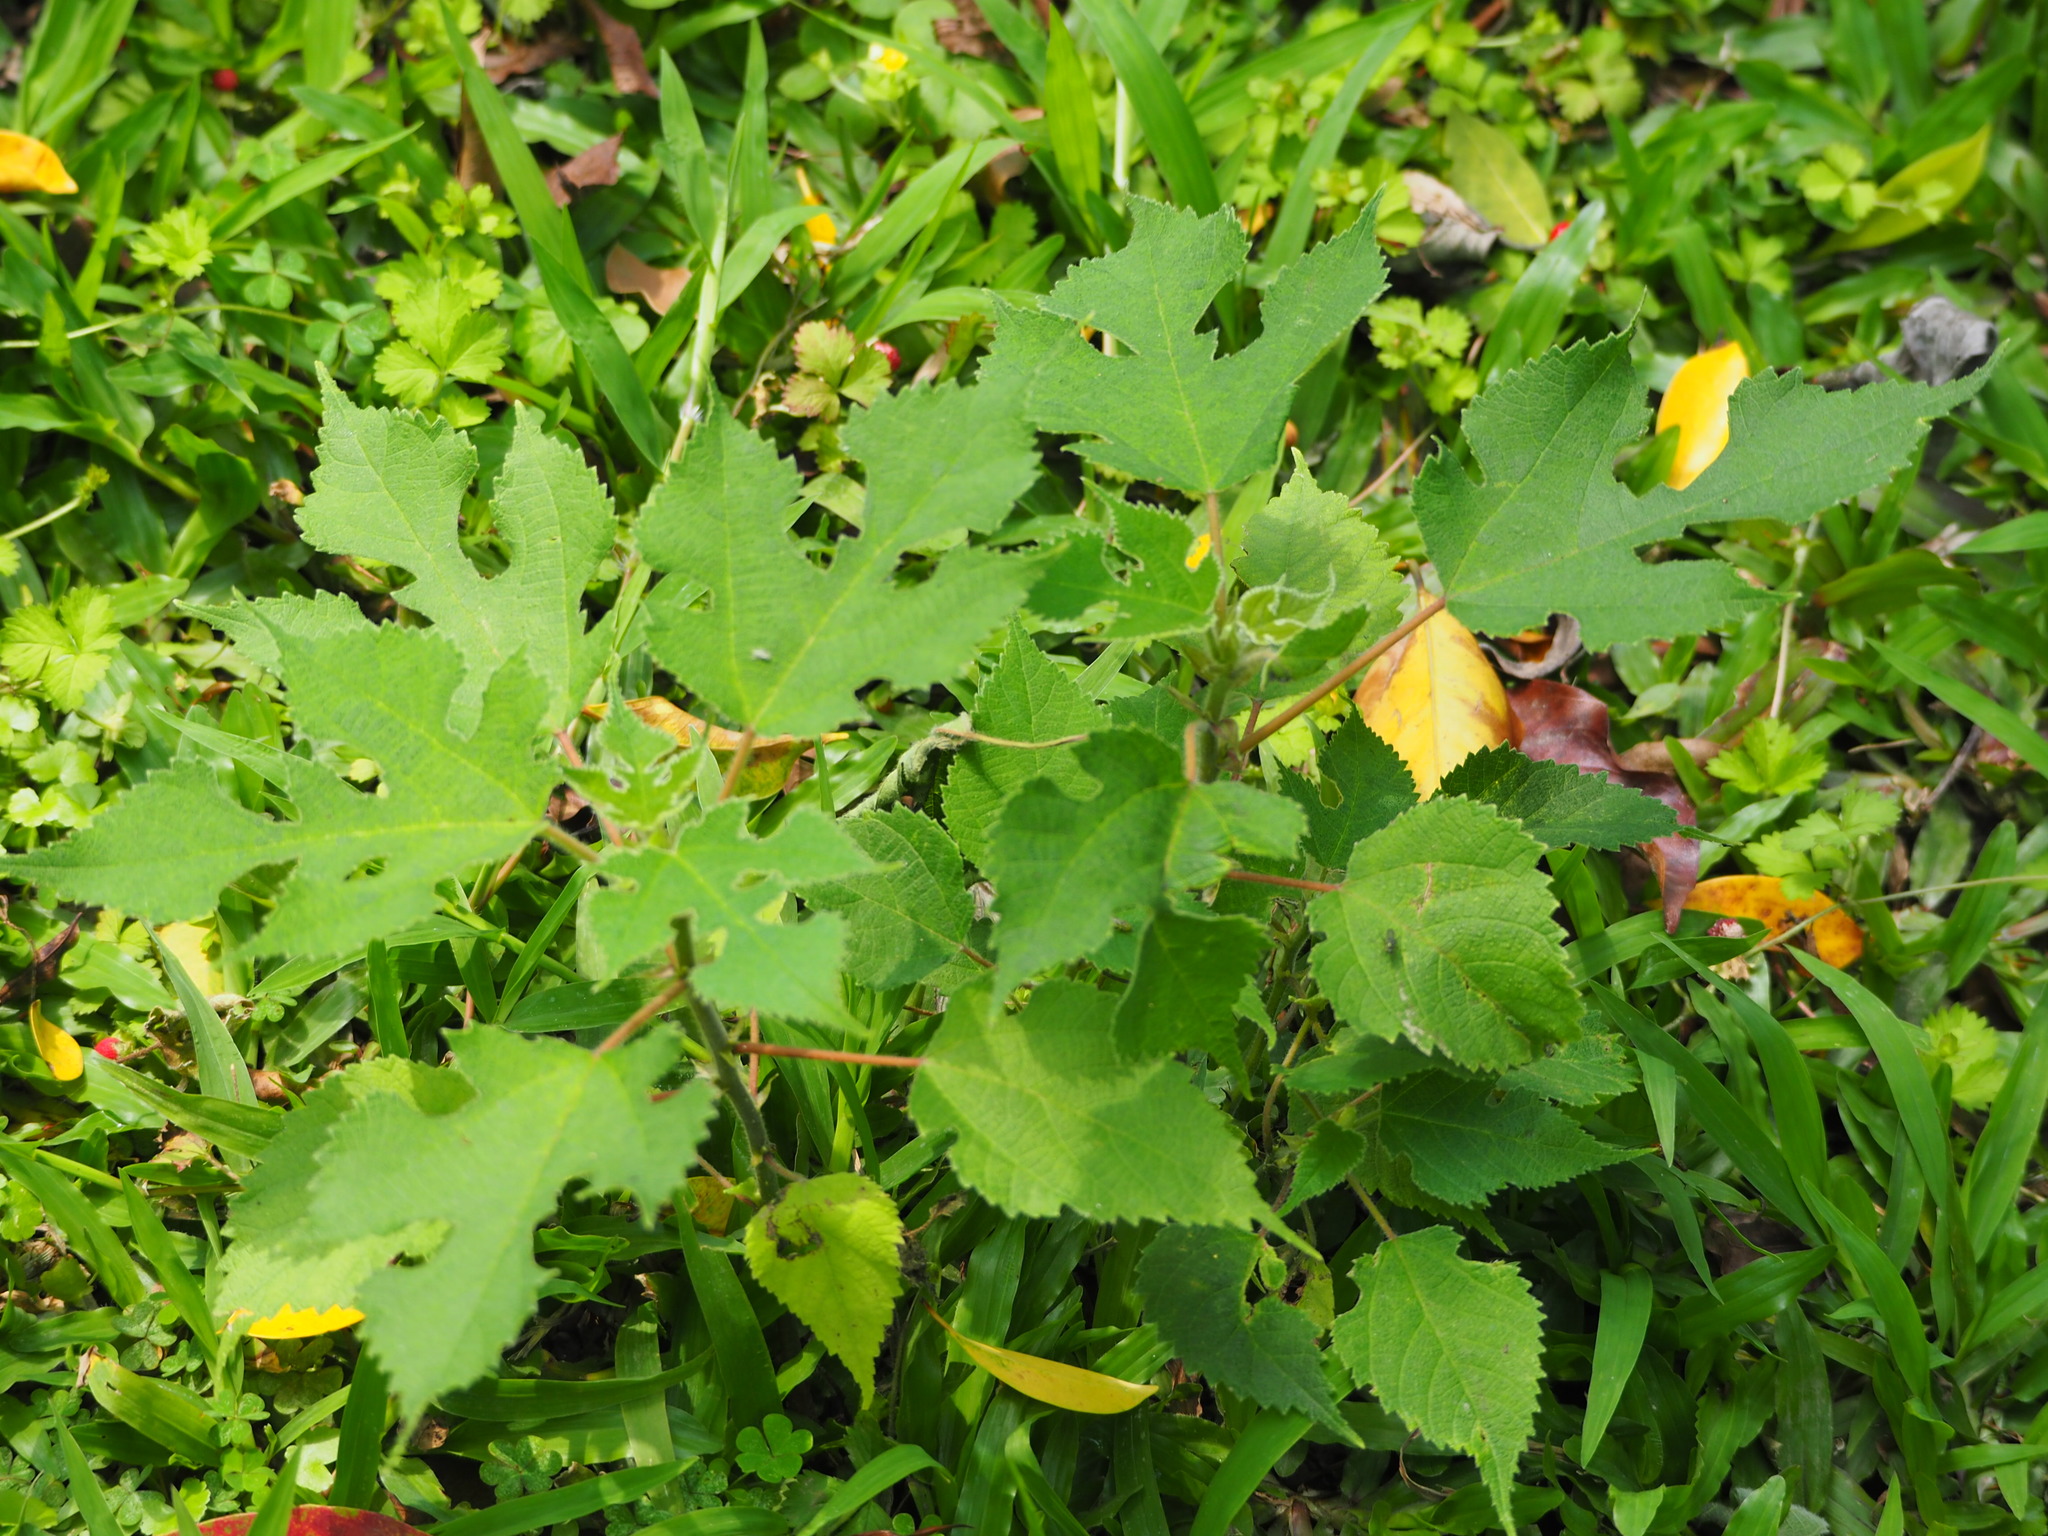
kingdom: Plantae
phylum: Tracheophyta
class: Magnoliopsida
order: Rosales
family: Moraceae
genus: Broussonetia
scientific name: Broussonetia papyrifera
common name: Paper mulberry
